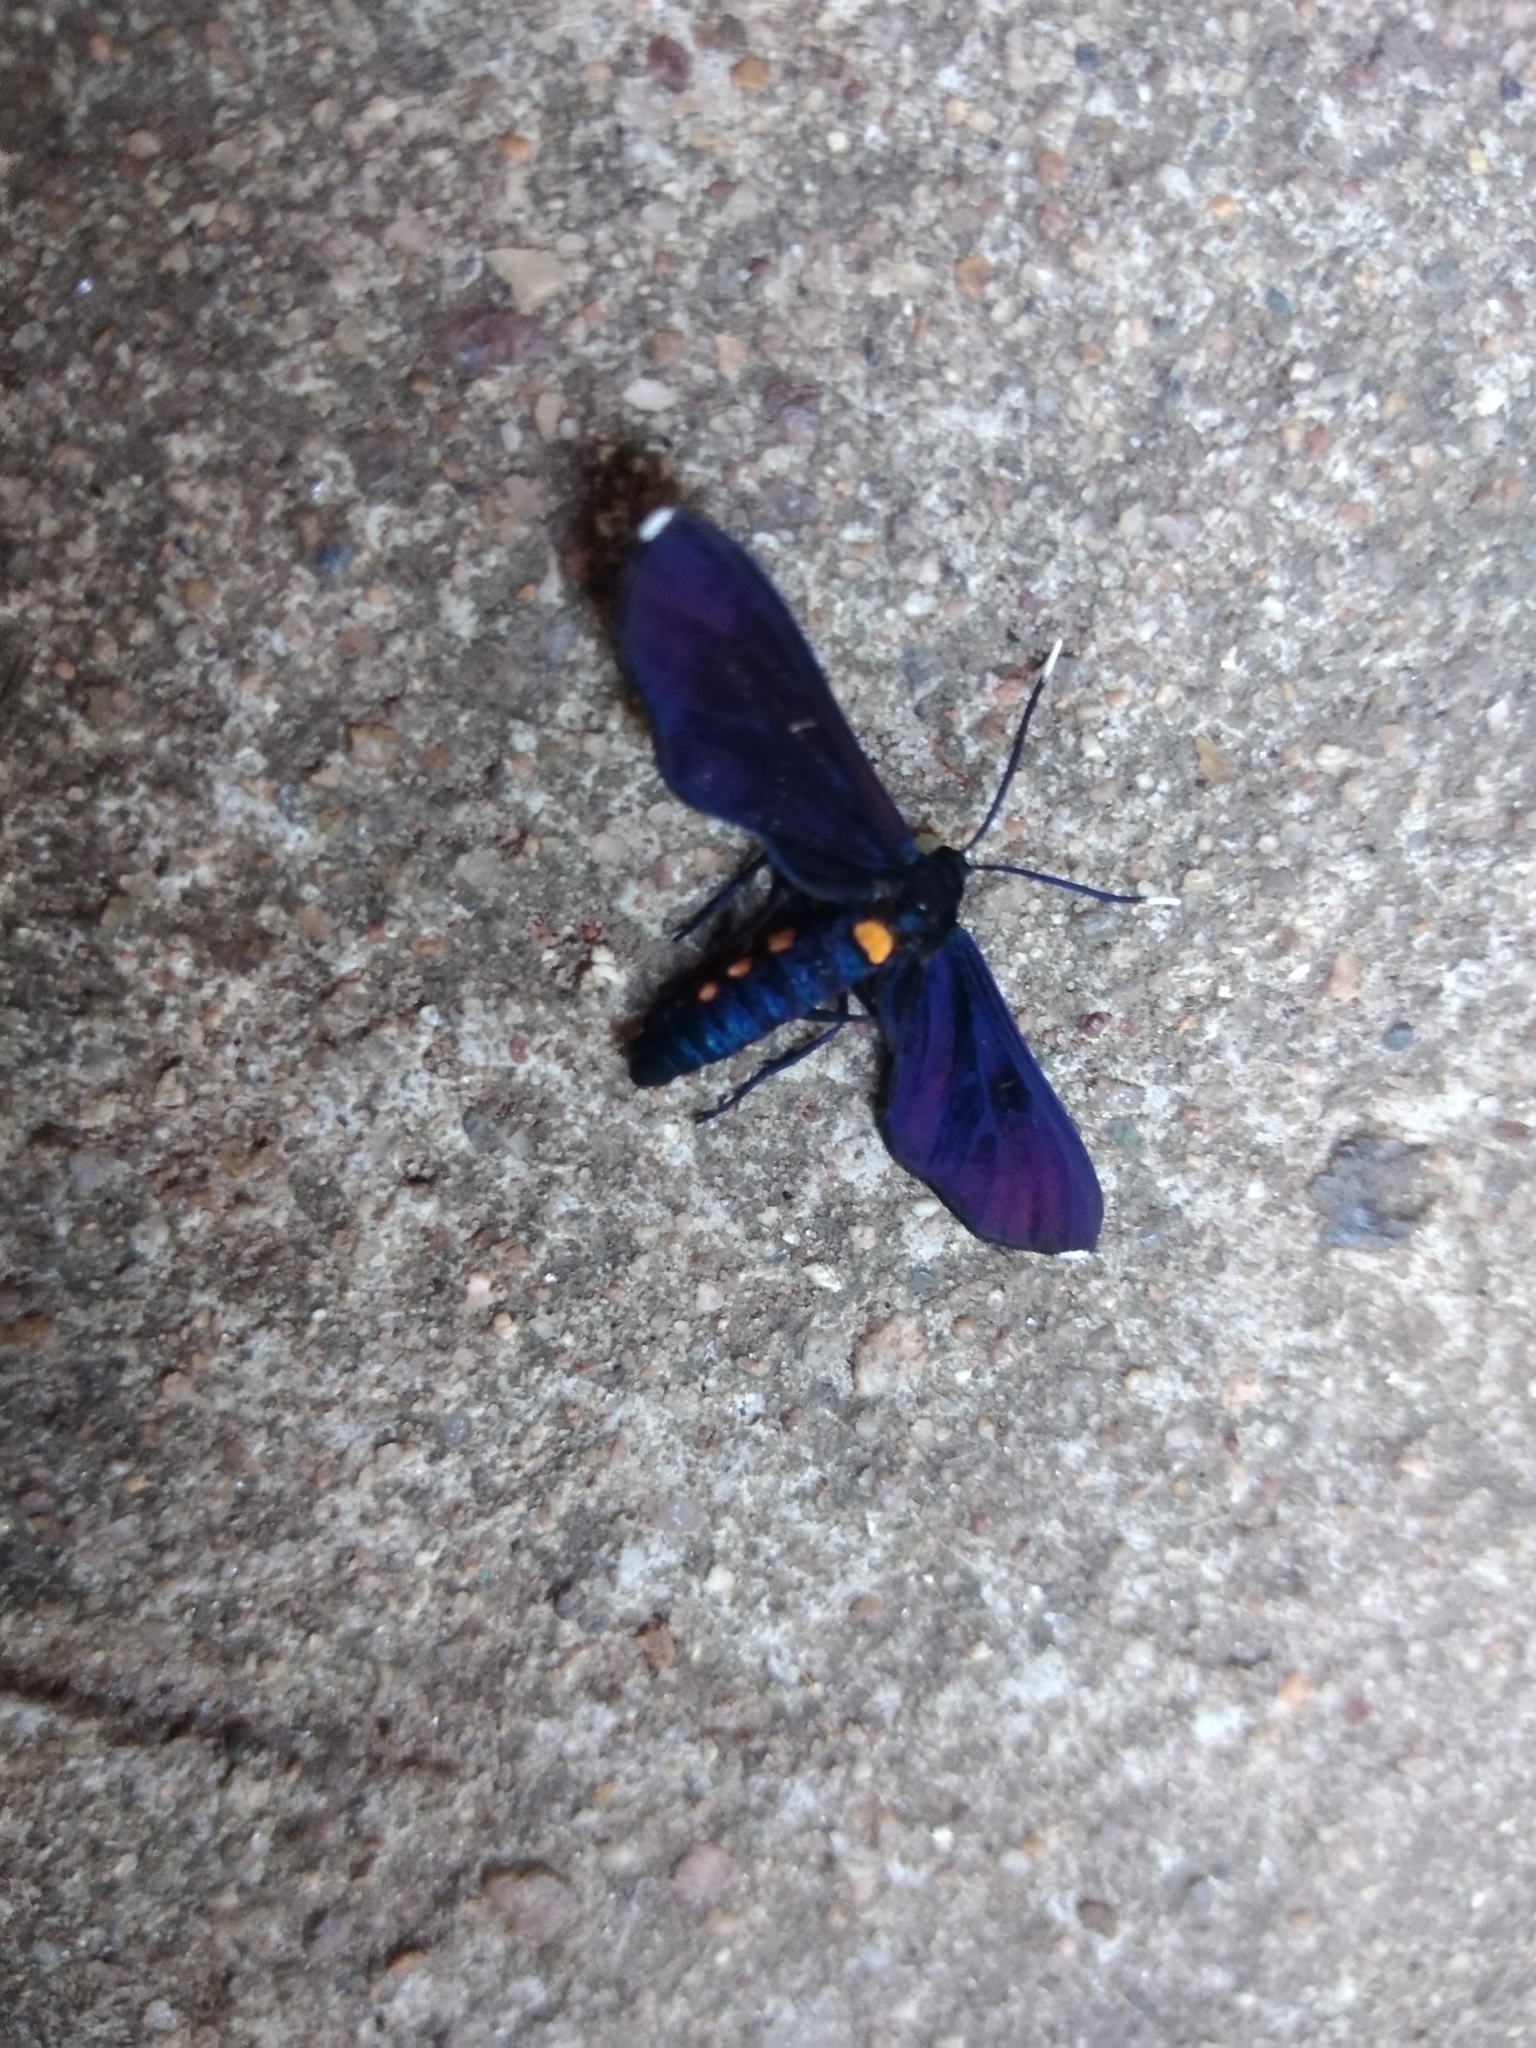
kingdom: Animalia
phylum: Arthropoda
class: Insecta
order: Lepidoptera
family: Erebidae
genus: Amata
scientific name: Amata simplex
